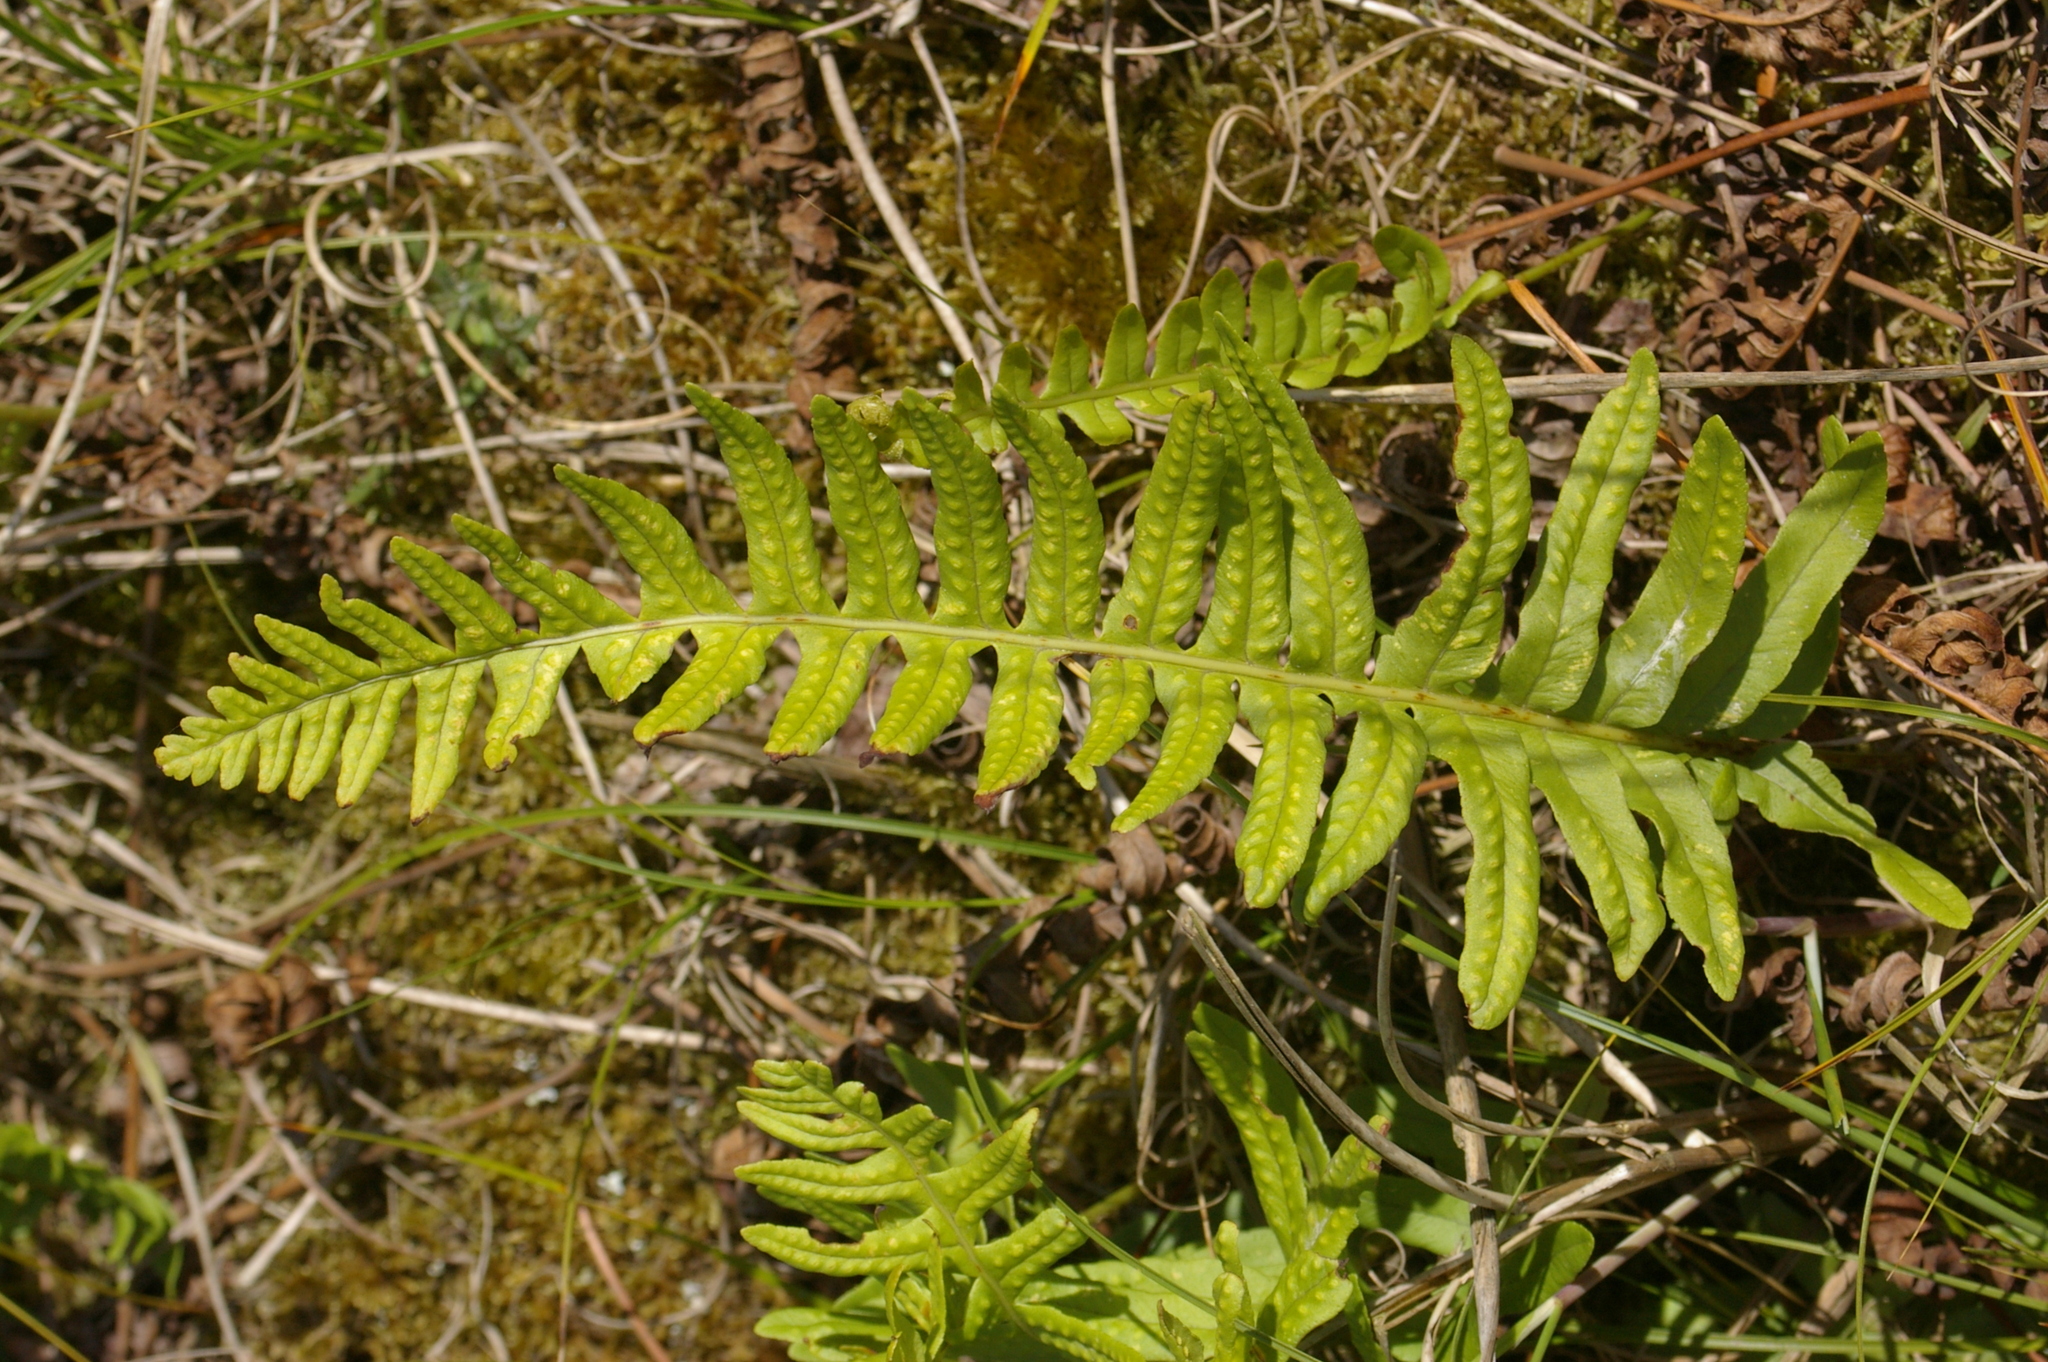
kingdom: Plantae
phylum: Tracheophyta
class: Polypodiopsida
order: Polypodiales
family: Polypodiaceae
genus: Polypodium
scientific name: Polypodium
